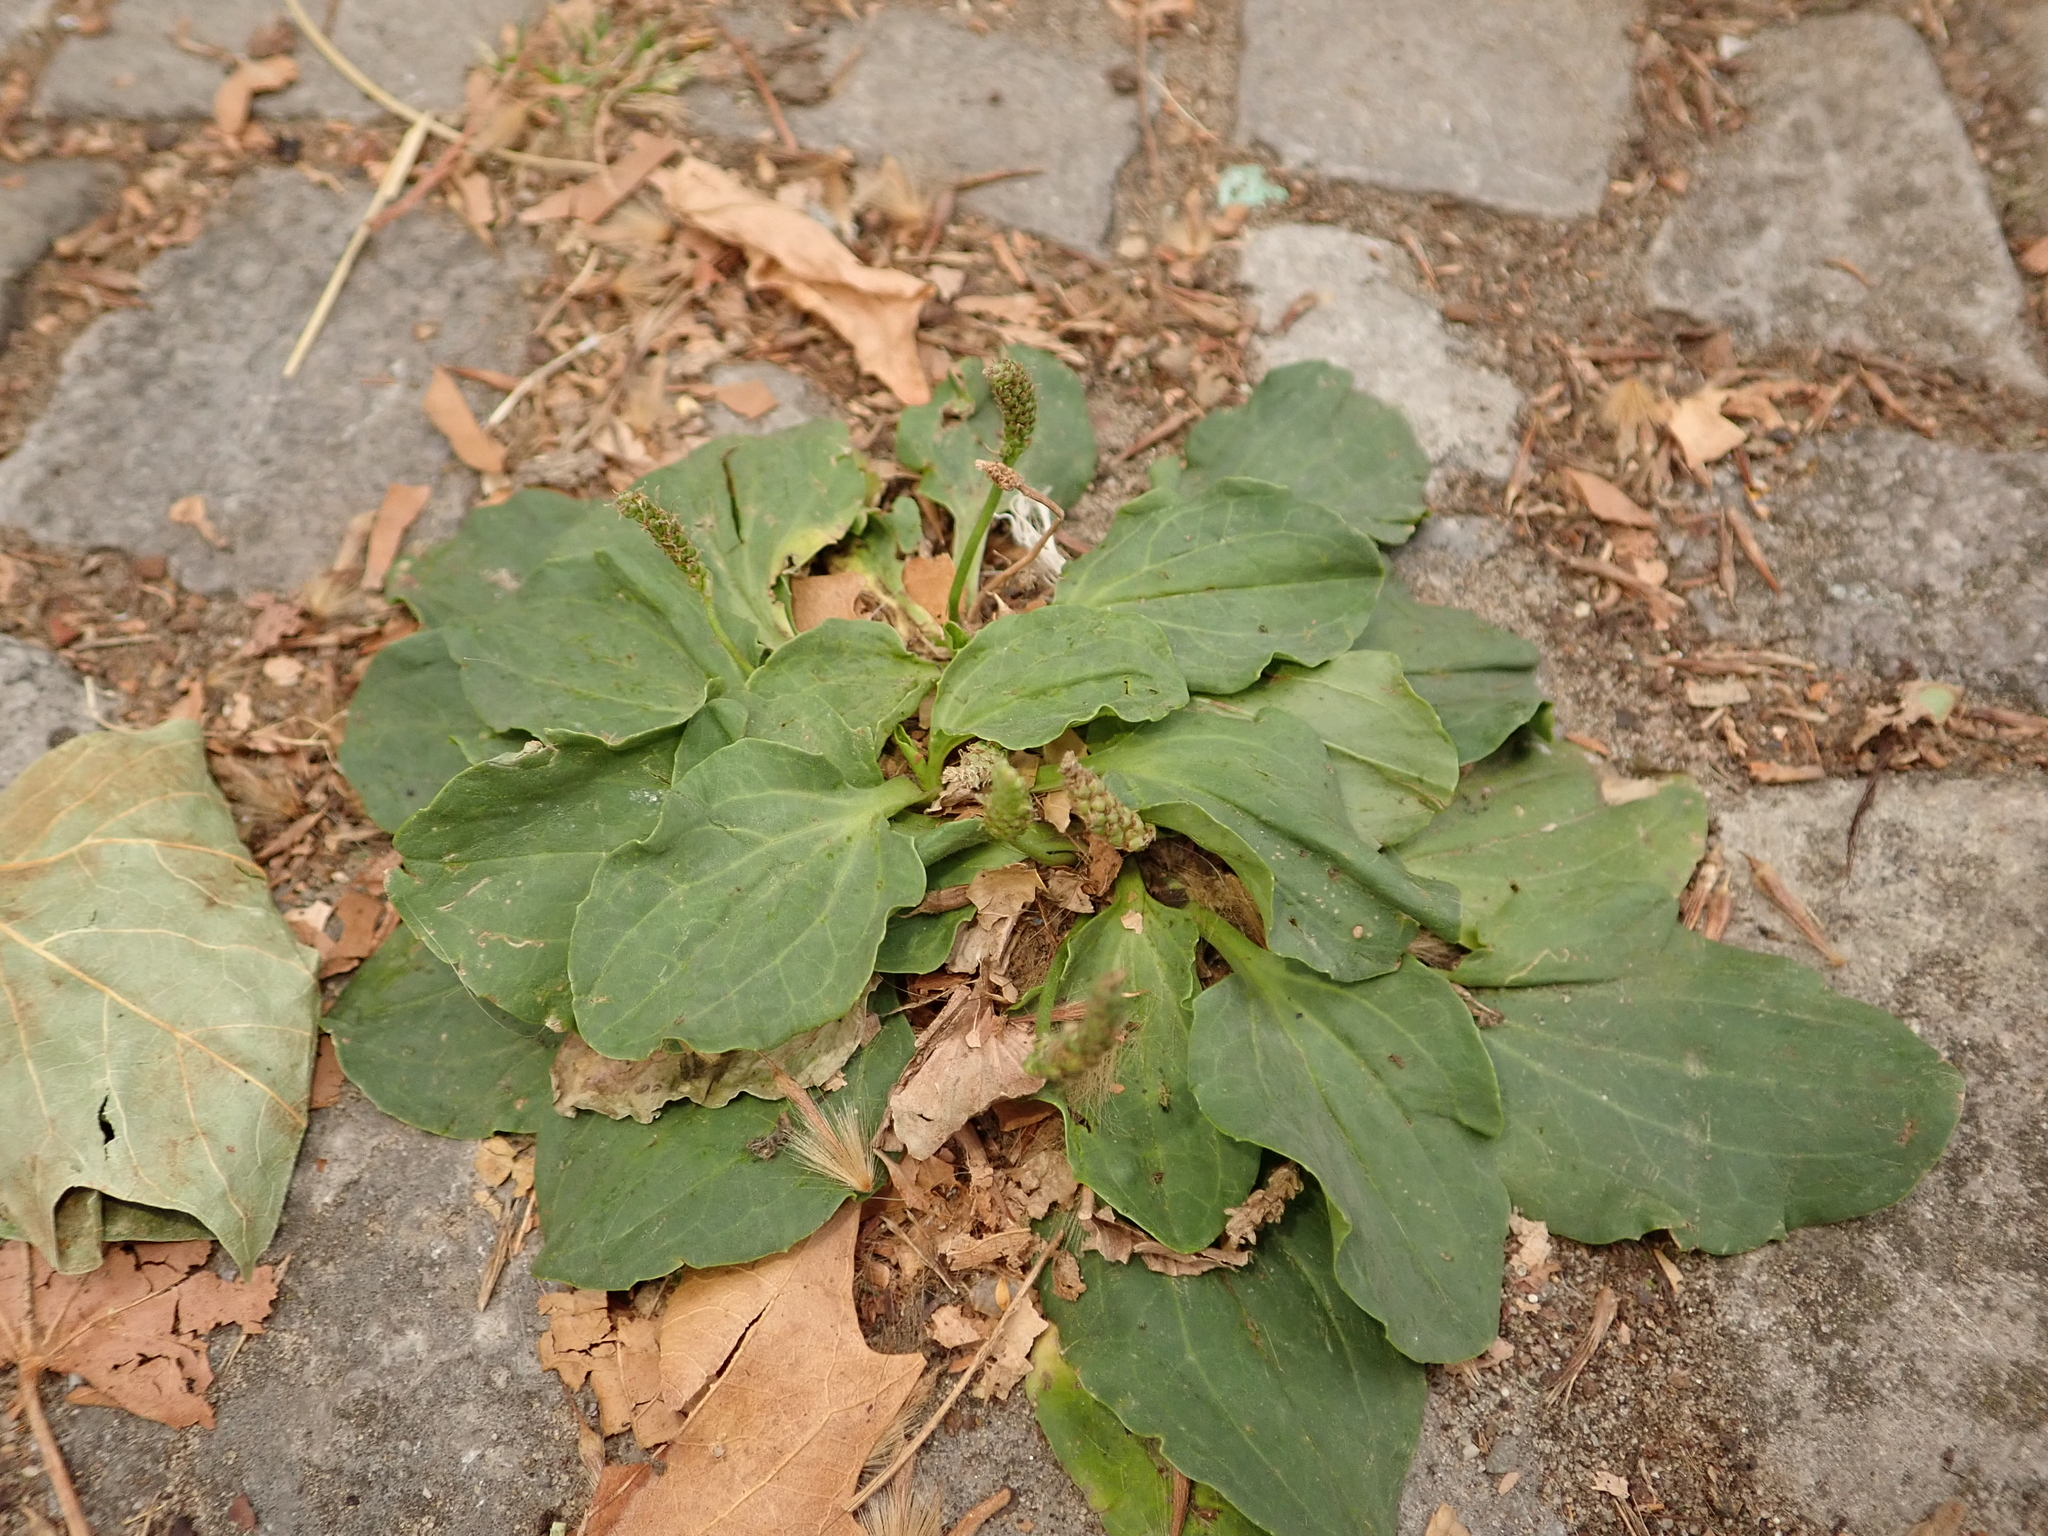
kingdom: Plantae
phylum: Tracheophyta
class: Magnoliopsida
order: Lamiales
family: Plantaginaceae
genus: Plantago
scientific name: Plantago major
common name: Common plantain
